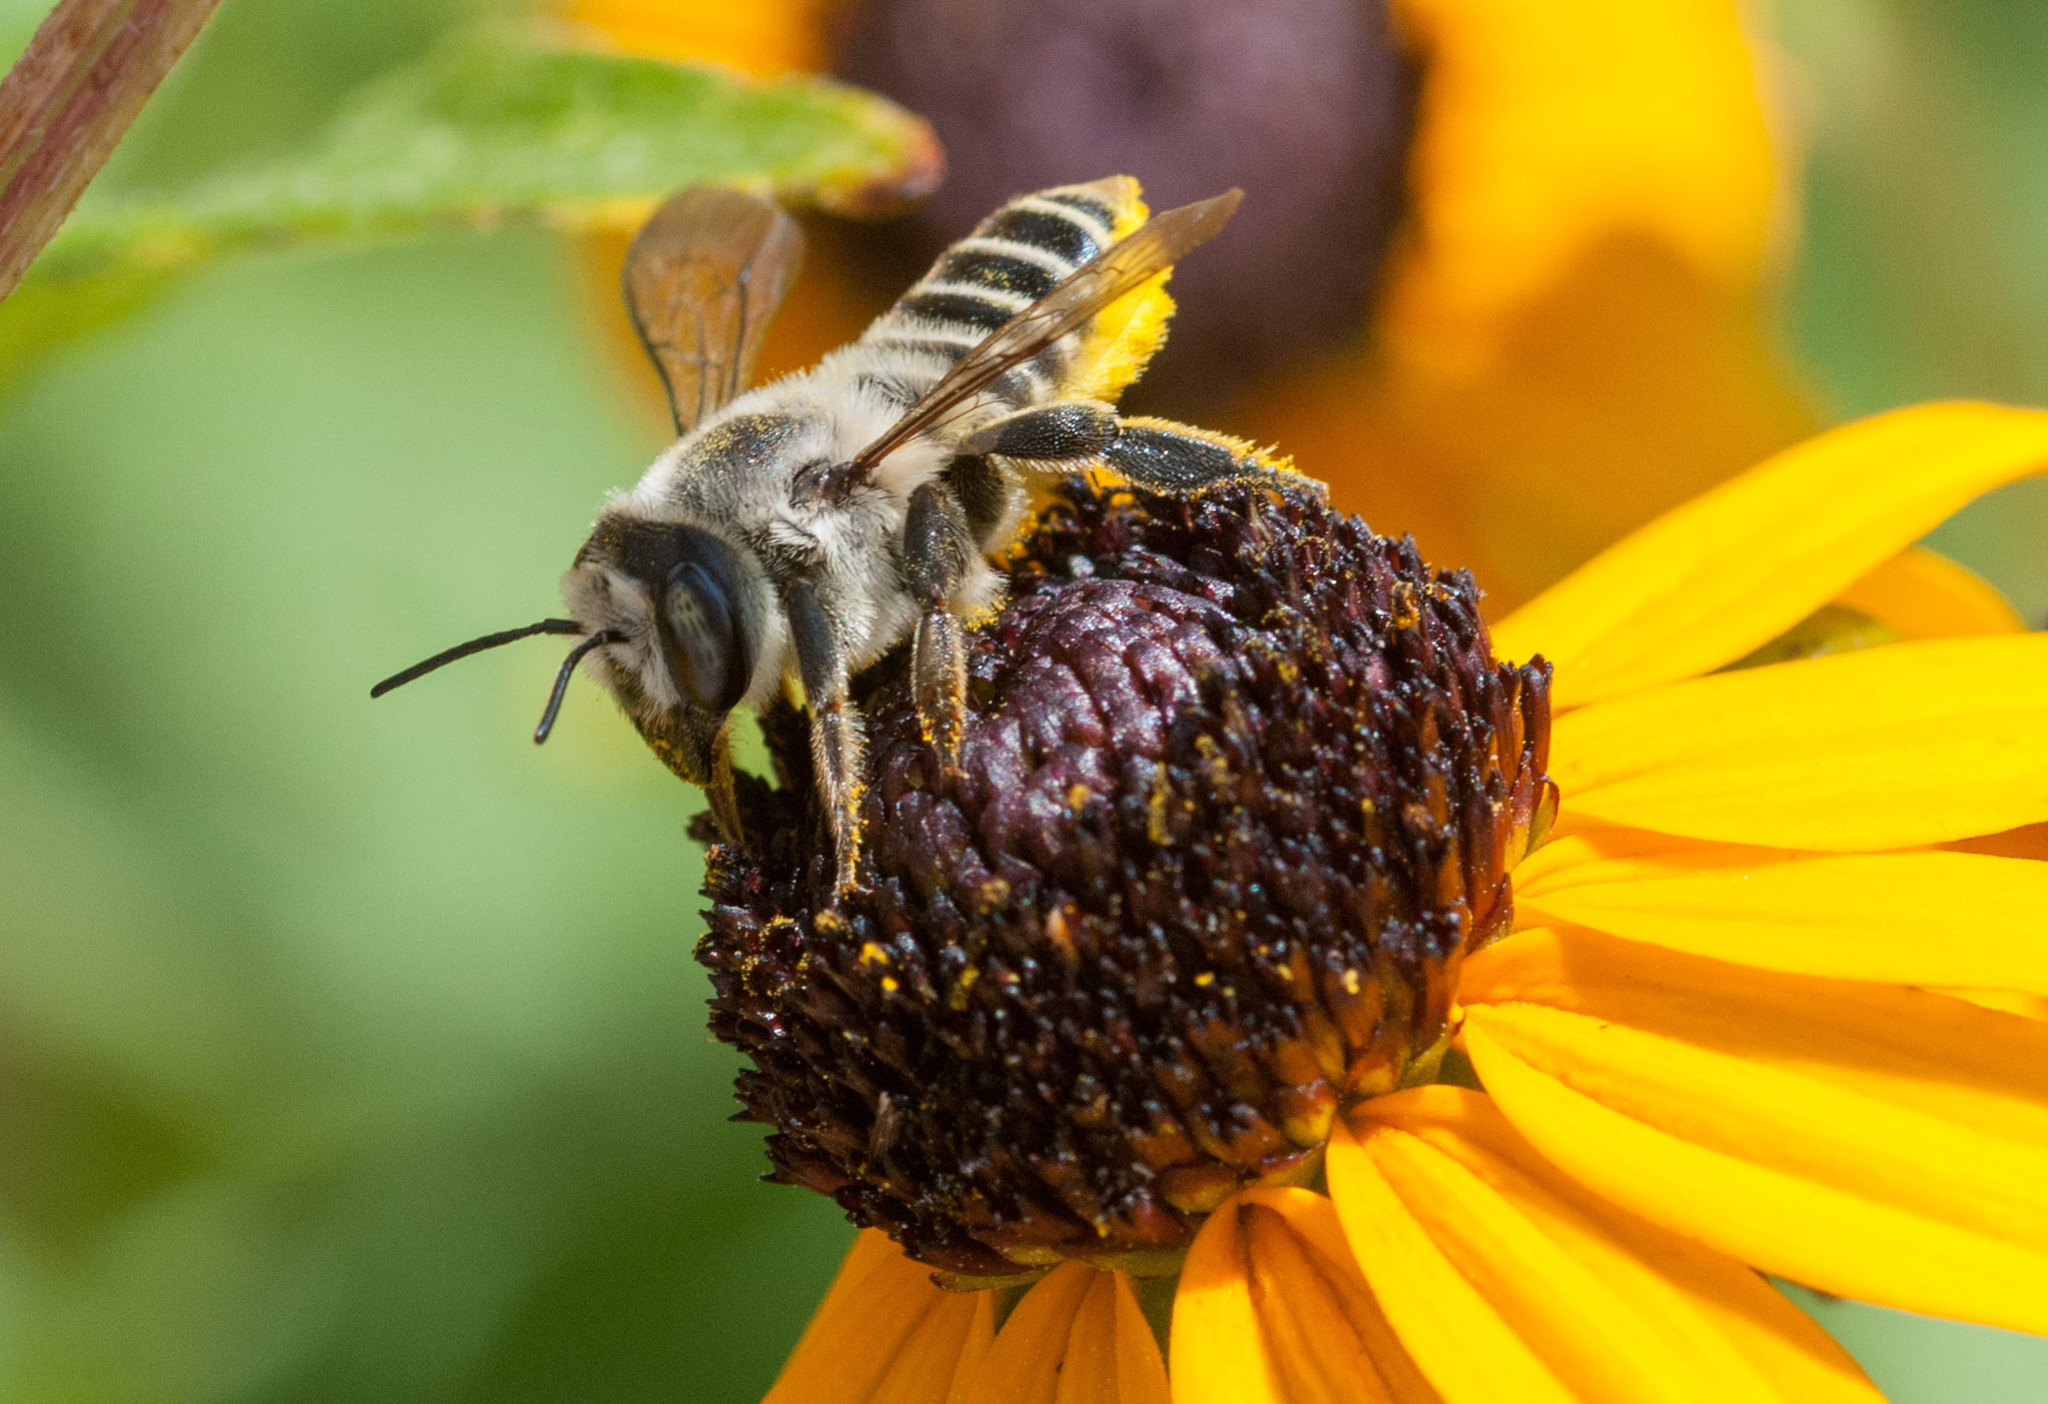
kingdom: Animalia
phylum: Arthropoda
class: Insecta
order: Hymenoptera
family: Megachilidae
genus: Megachile
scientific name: Megachile parallela
